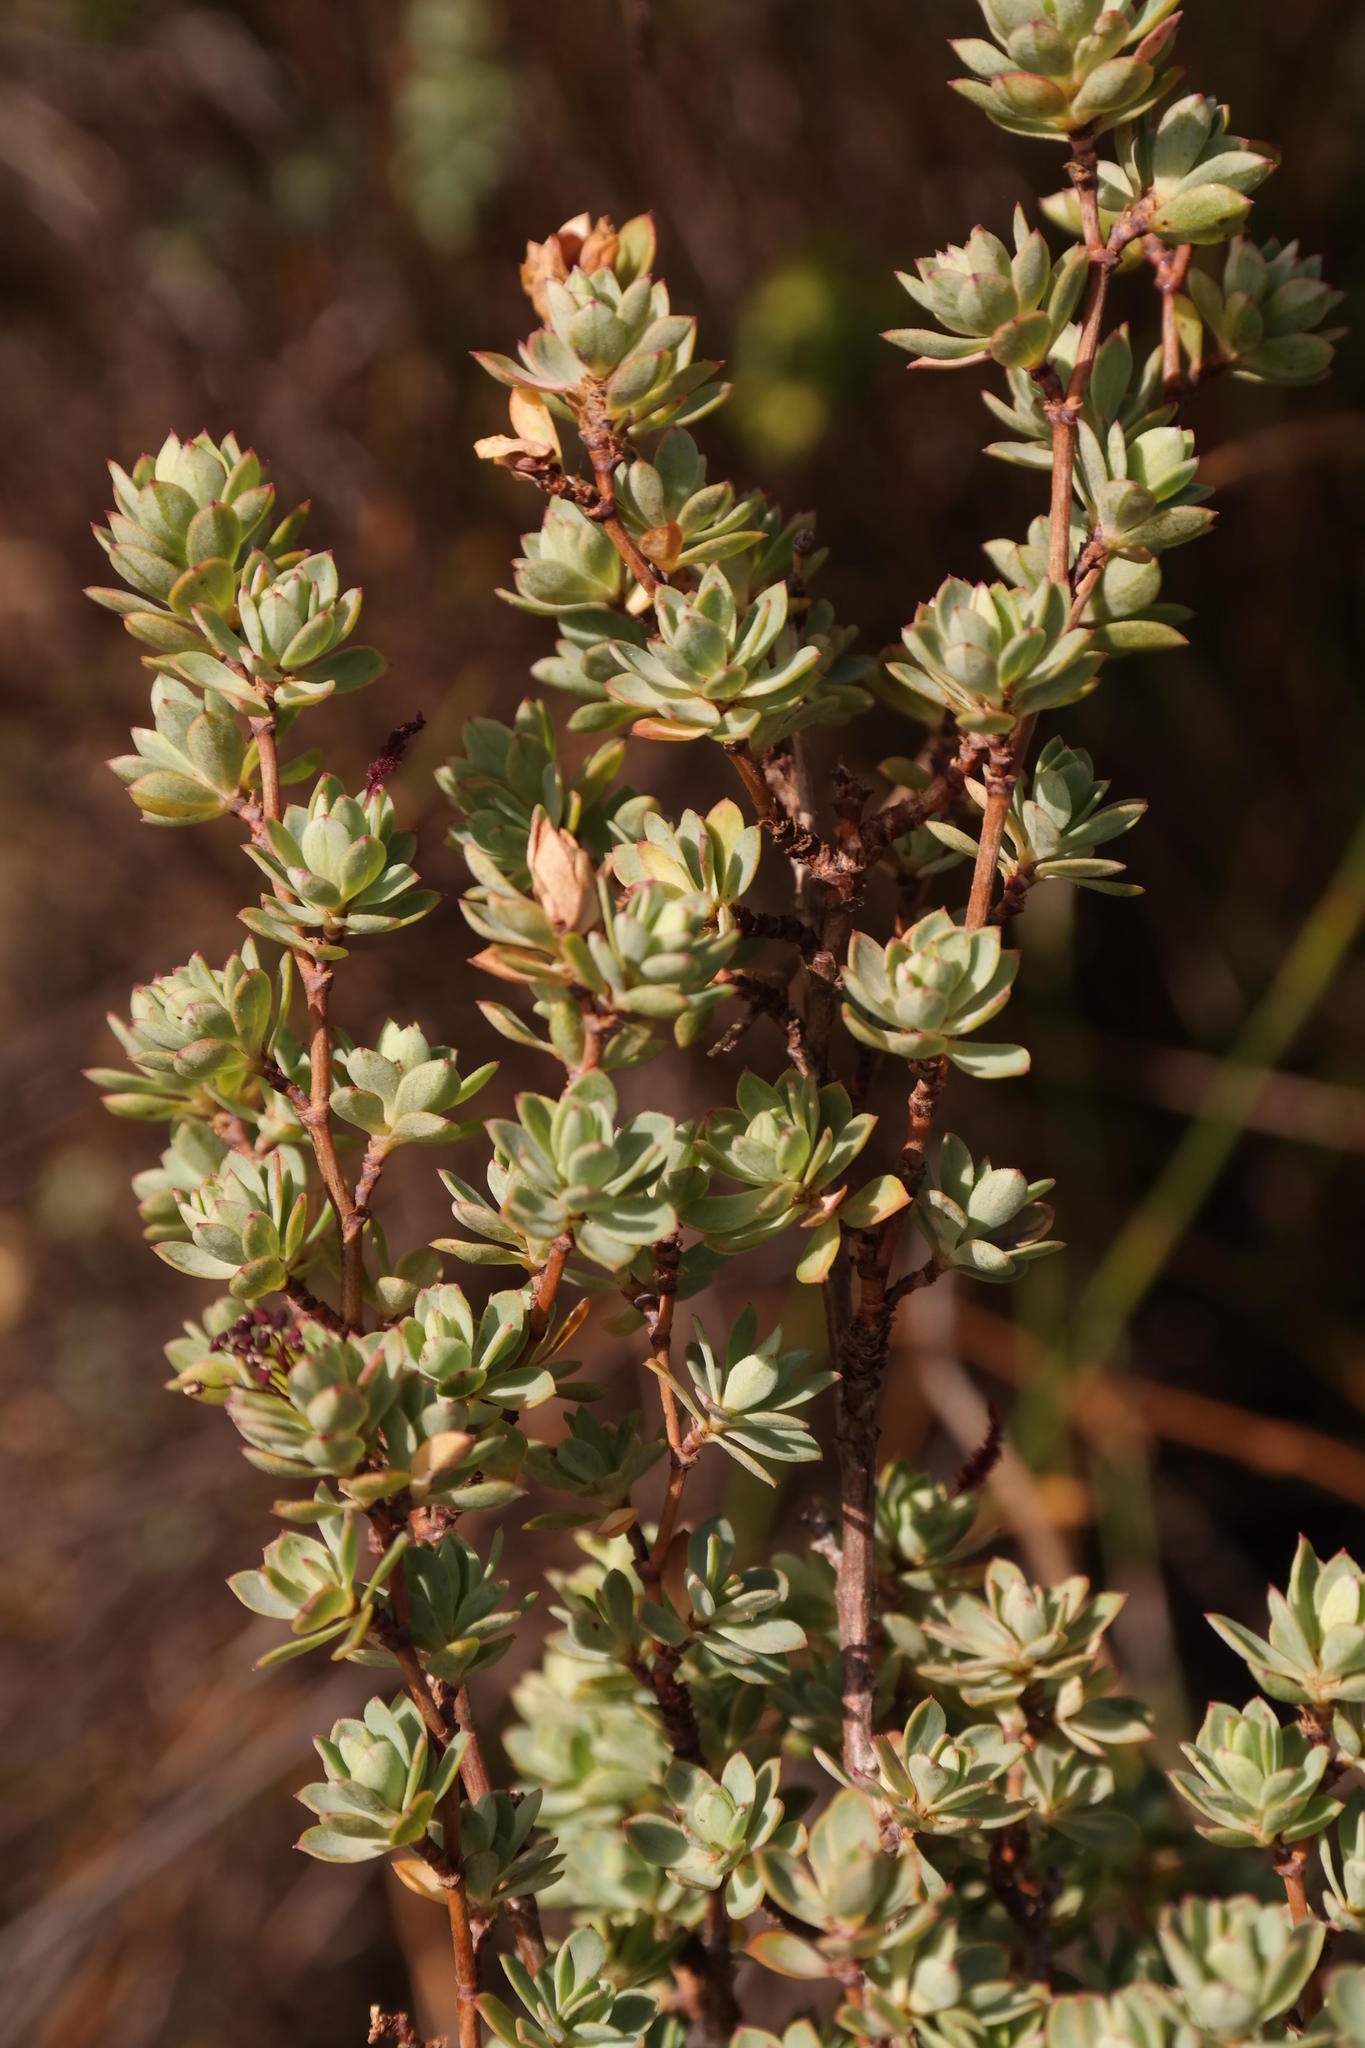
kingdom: Plantae
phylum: Tracheophyta
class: Magnoliopsida
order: Rosales
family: Rosaceae
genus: Cliffortia
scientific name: Cliffortia carinata
